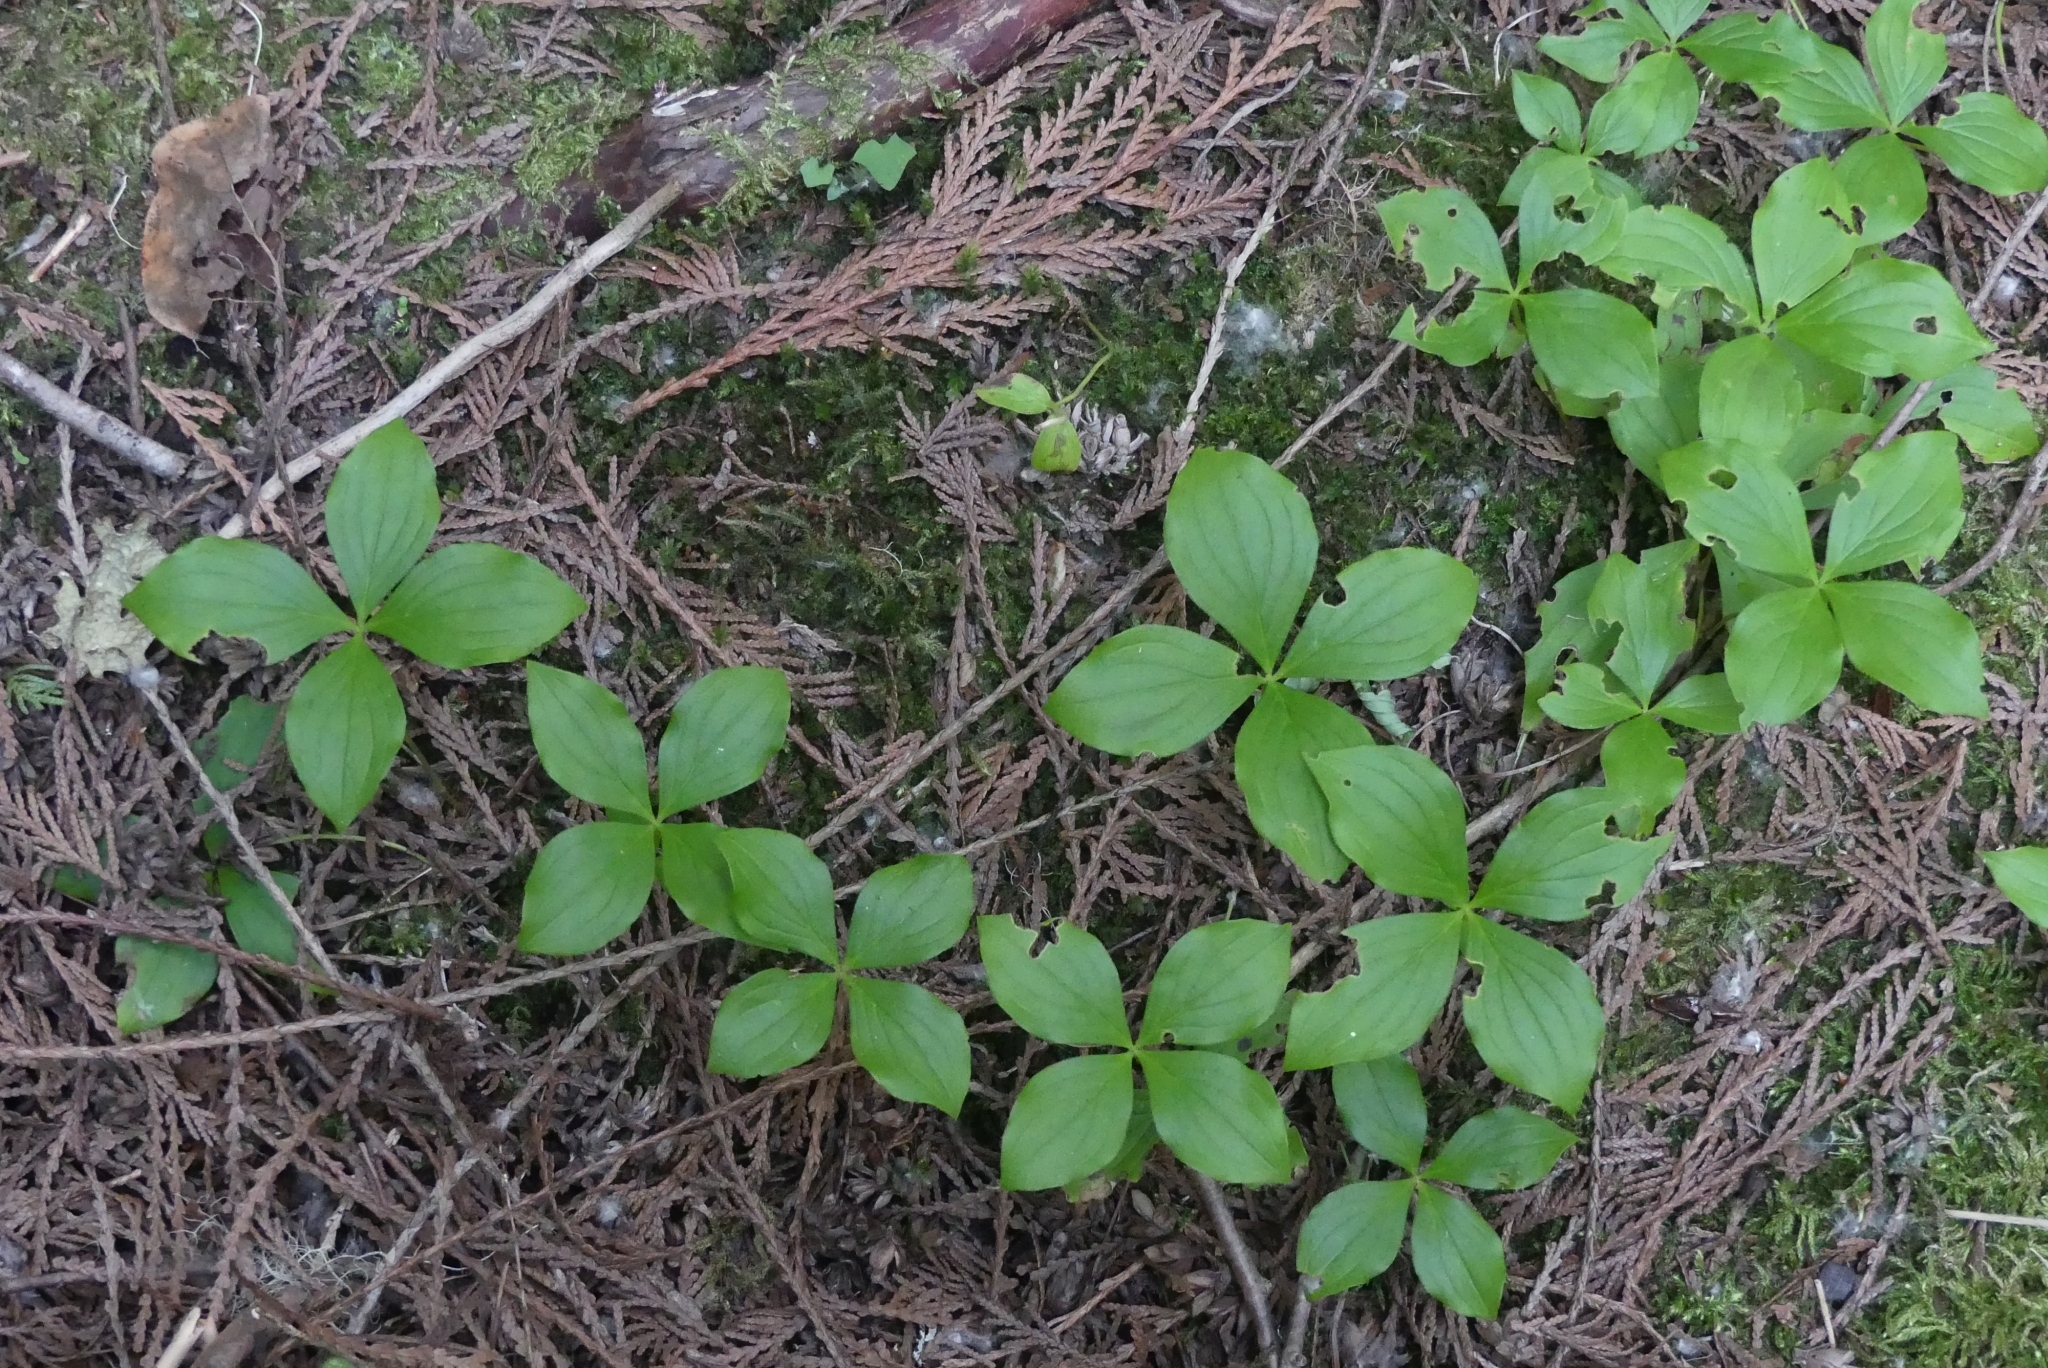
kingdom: Plantae
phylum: Tracheophyta
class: Magnoliopsida
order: Cornales
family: Cornaceae
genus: Cornus
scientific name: Cornus unalaschkensis
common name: Alaska bunchberry
